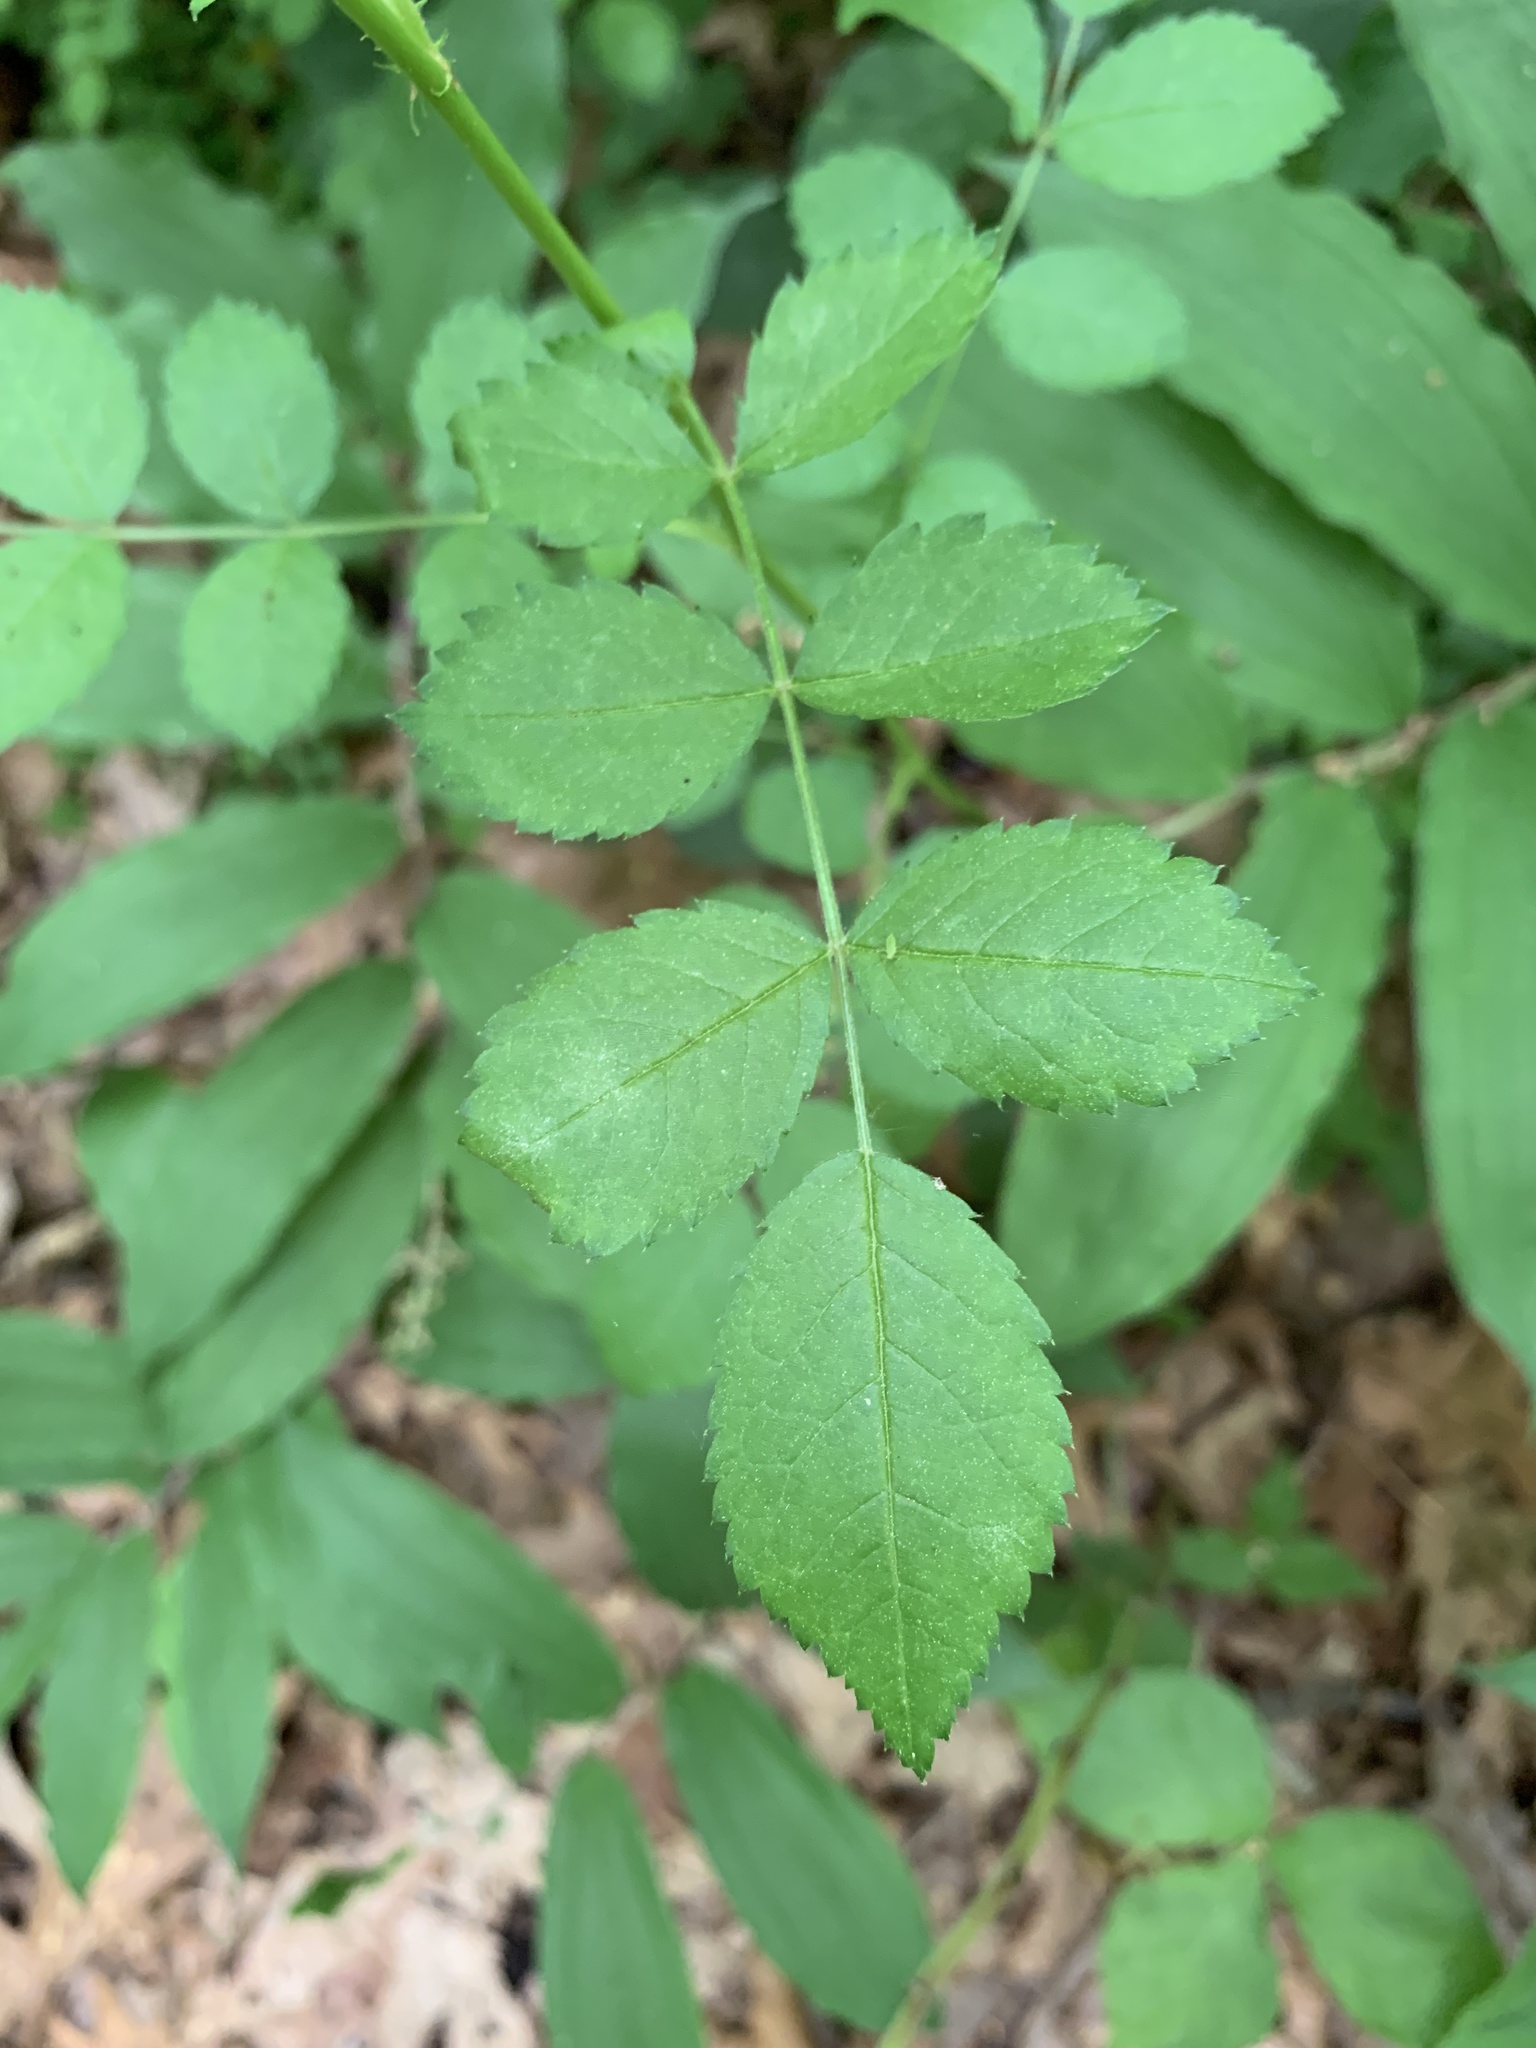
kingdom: Plantae
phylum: Tracheophyta
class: Magnoliopsida
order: Rosales
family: Rosaceae
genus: Rosa
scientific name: Rosa multiflora
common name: Multiflora rose
